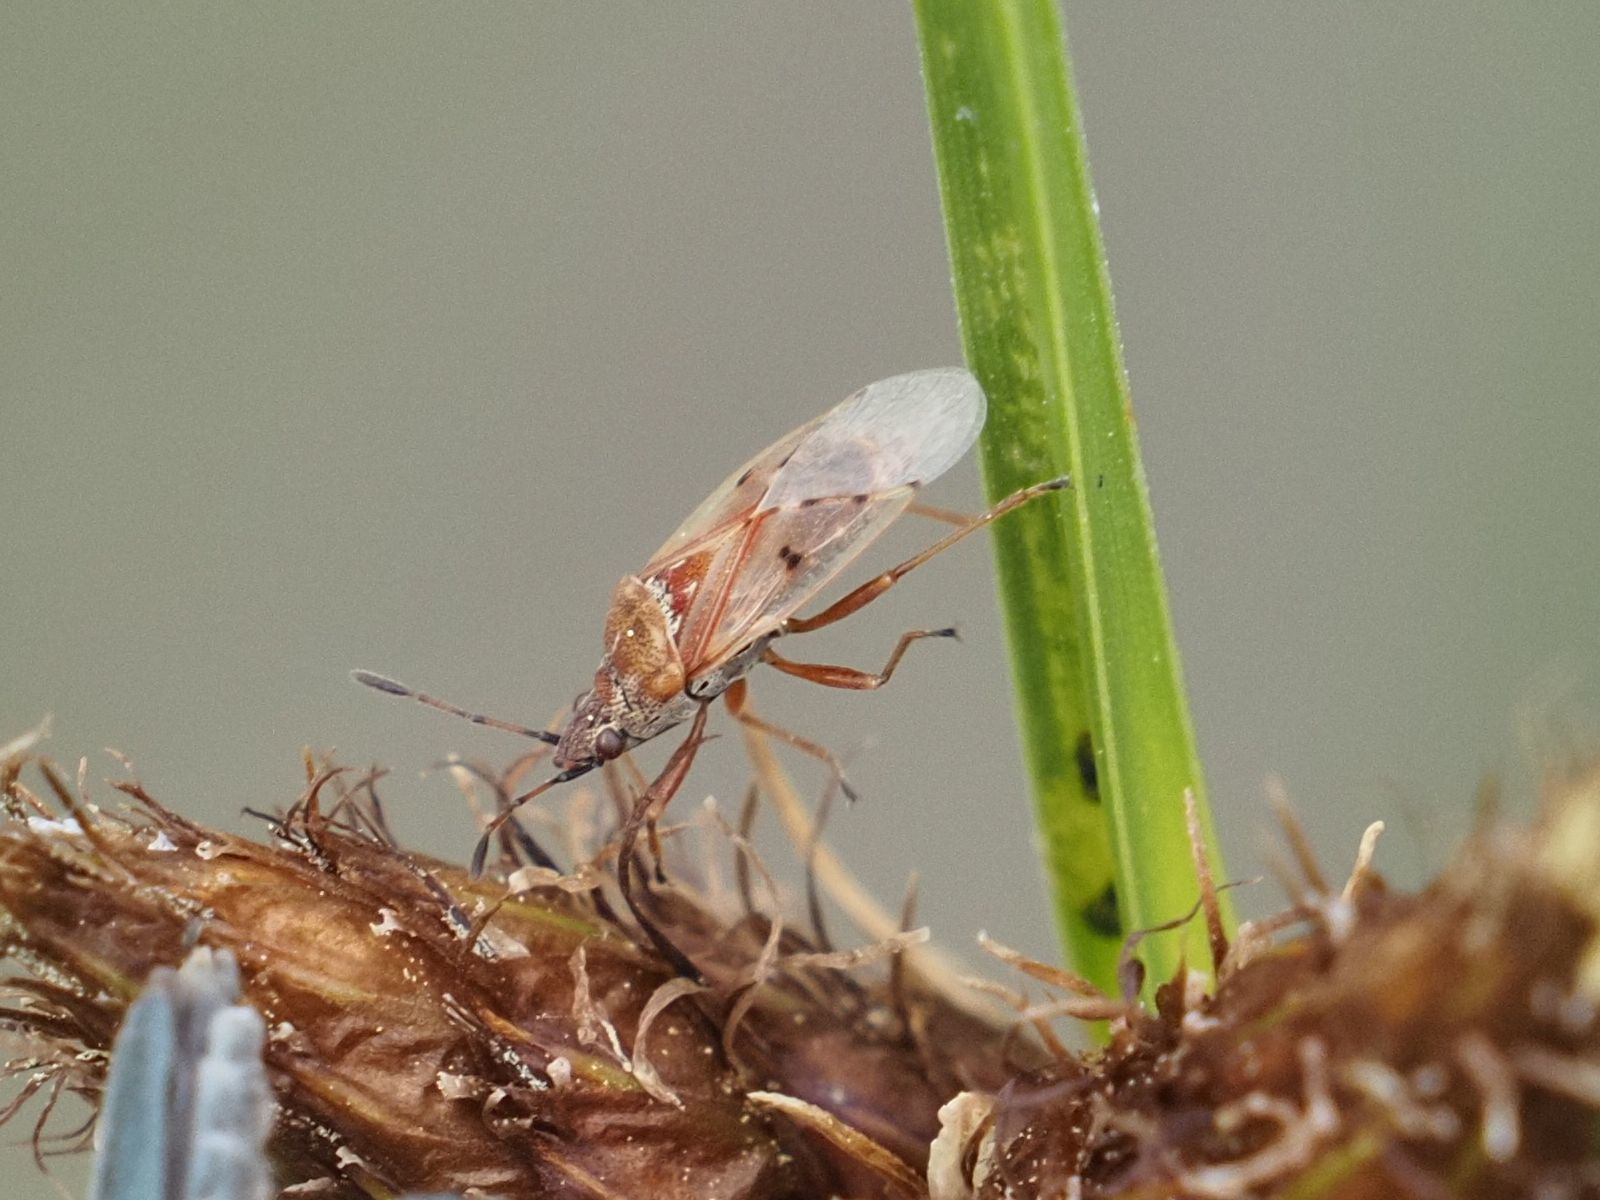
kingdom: Animalia
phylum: Arthropoda
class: Insecta
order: Hemiptera
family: Lygaeidae
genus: Kleidocerys
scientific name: Kleidocerys resedae
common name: Birch catkin bug
